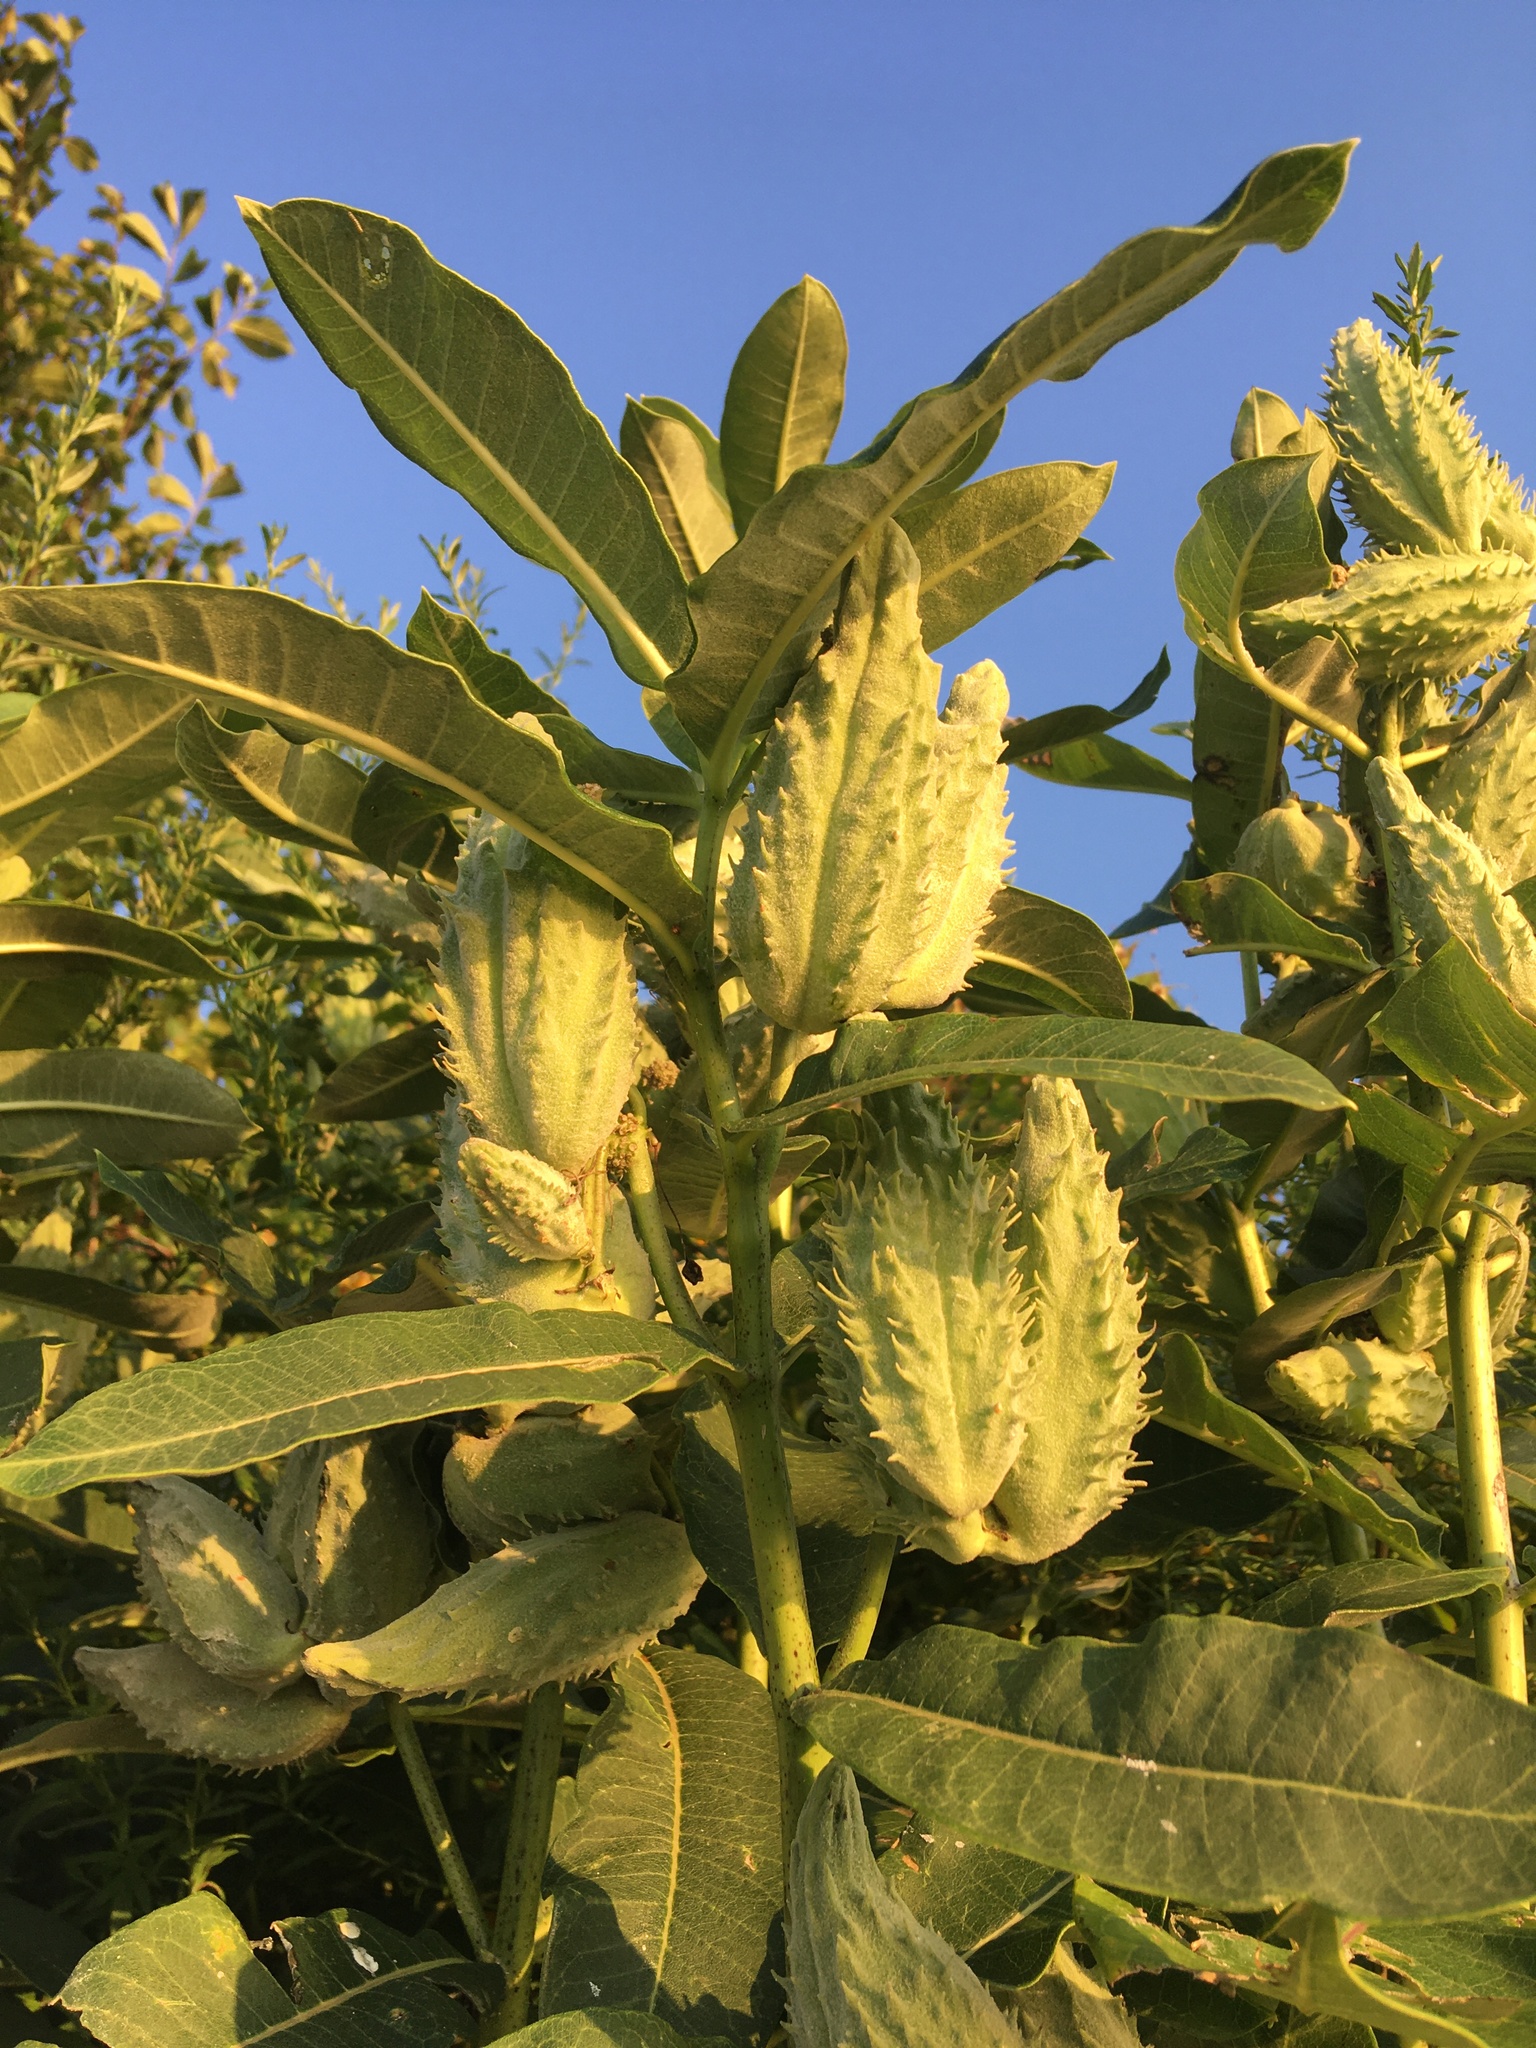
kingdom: Plantae
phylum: Tracheophyta
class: Magnoliopsida
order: Gentianales
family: Apocynaceae
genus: Asclepias
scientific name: Asclepias syriaca
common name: Common milkweed
